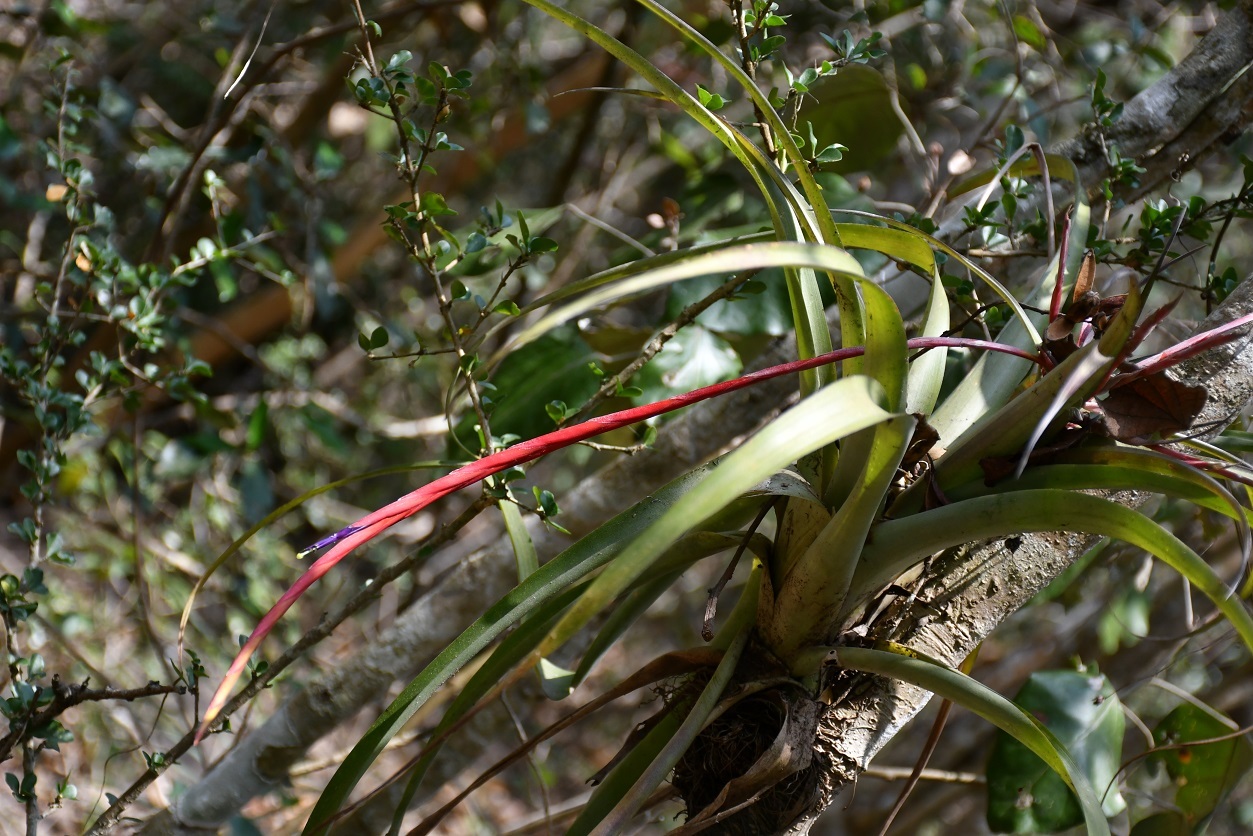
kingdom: Plantae
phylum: Tracheophyta
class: Liliopsida
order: Poales
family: Bromeliaceae
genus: Tillandsia
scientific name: Tillandsia flabellata
